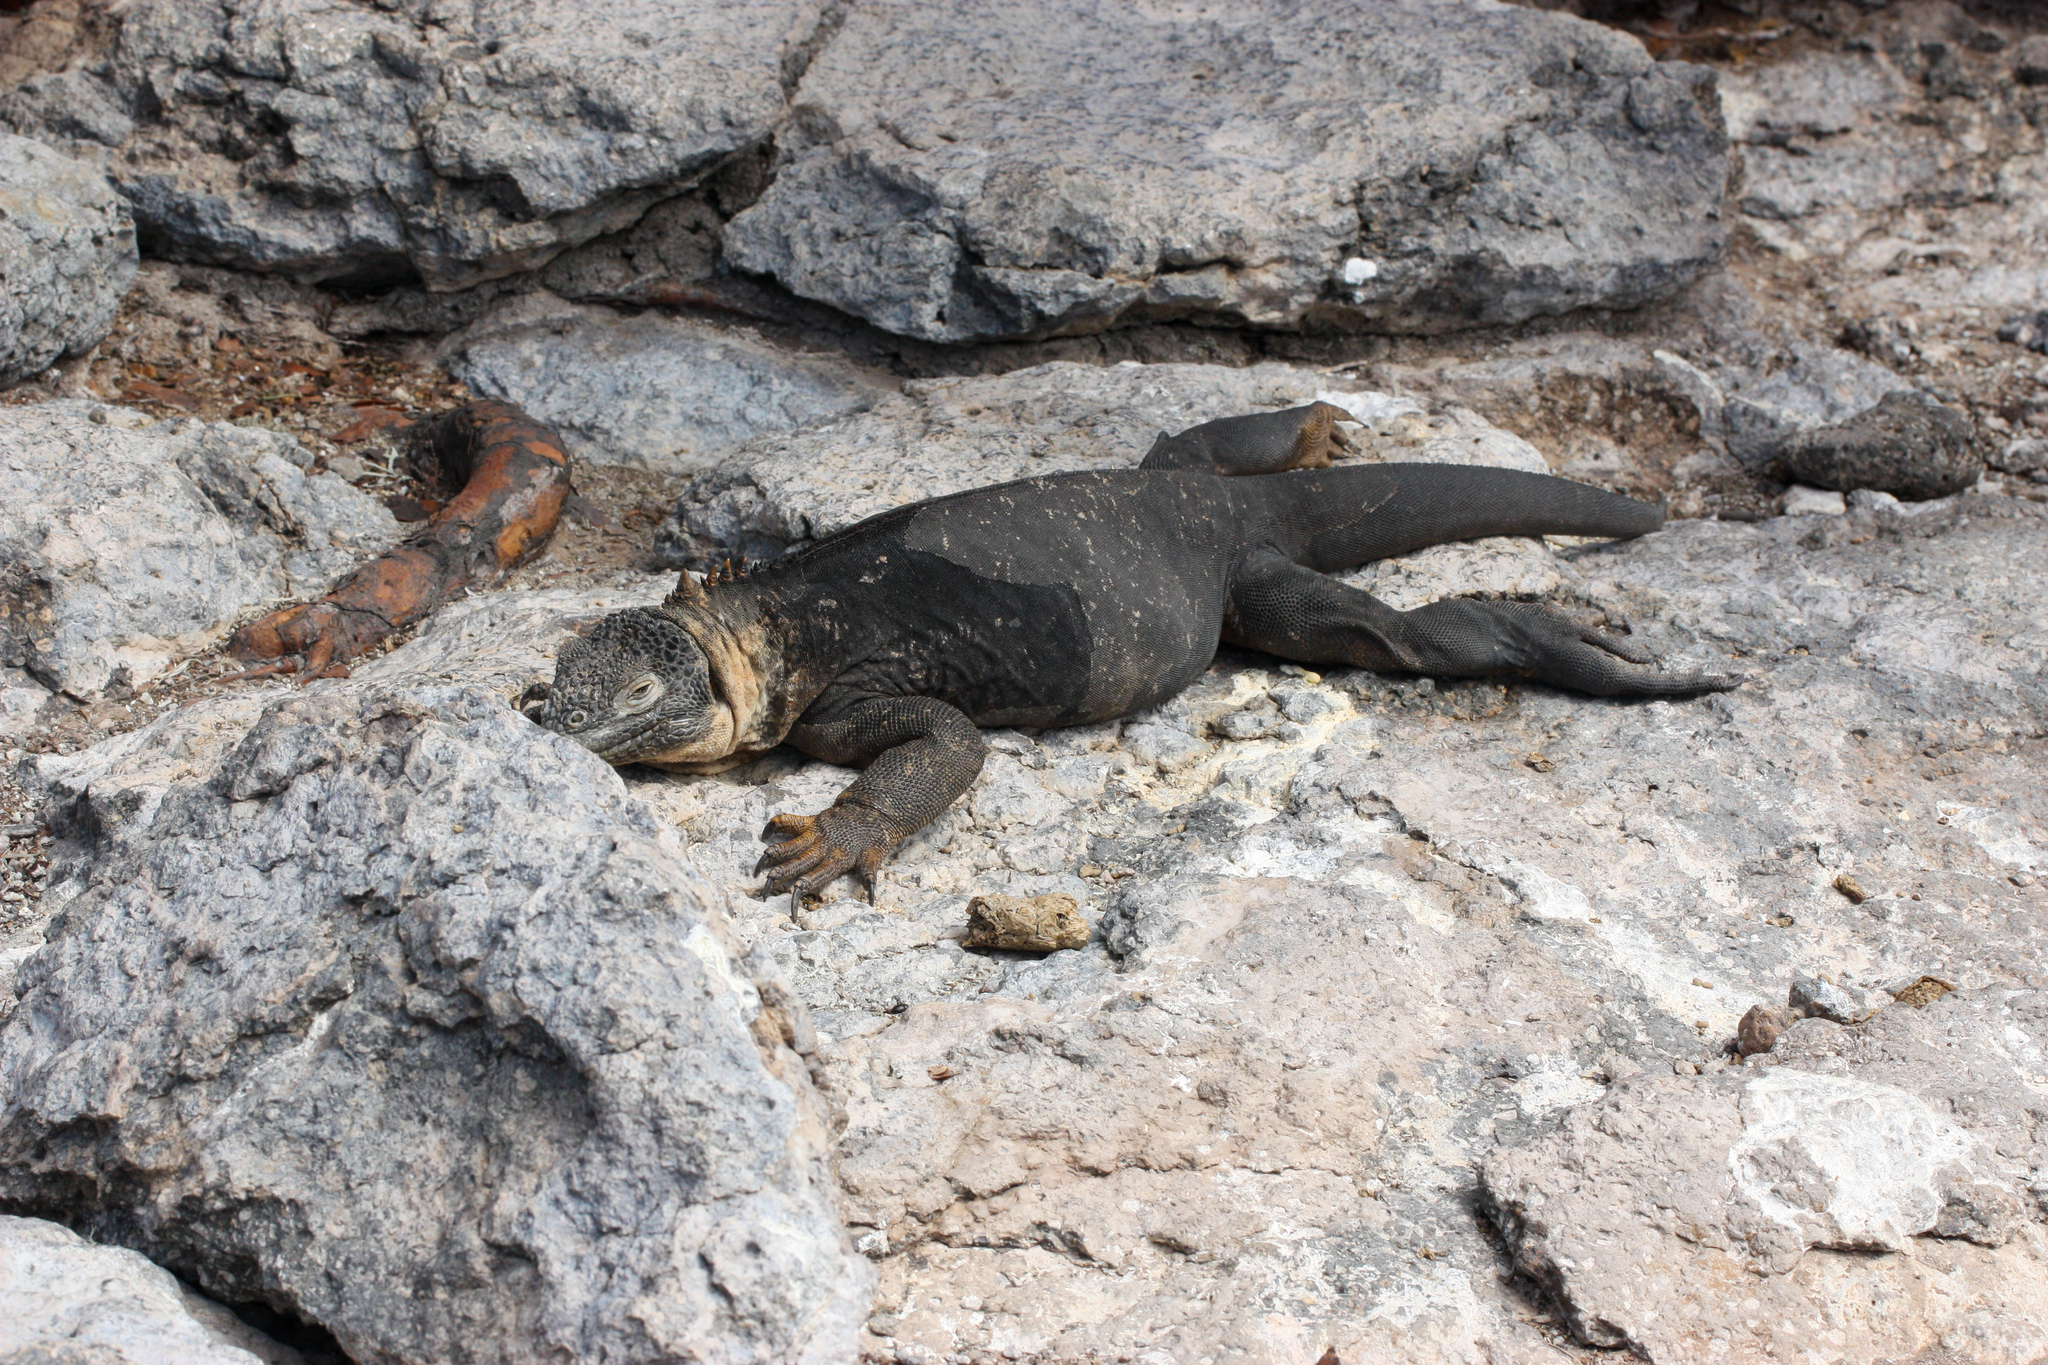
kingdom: Animalia
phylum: Chordata
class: Squamata
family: Iguanidae
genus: Conolophus
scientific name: Conolophus subcristatus
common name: Galapagos land iguana
